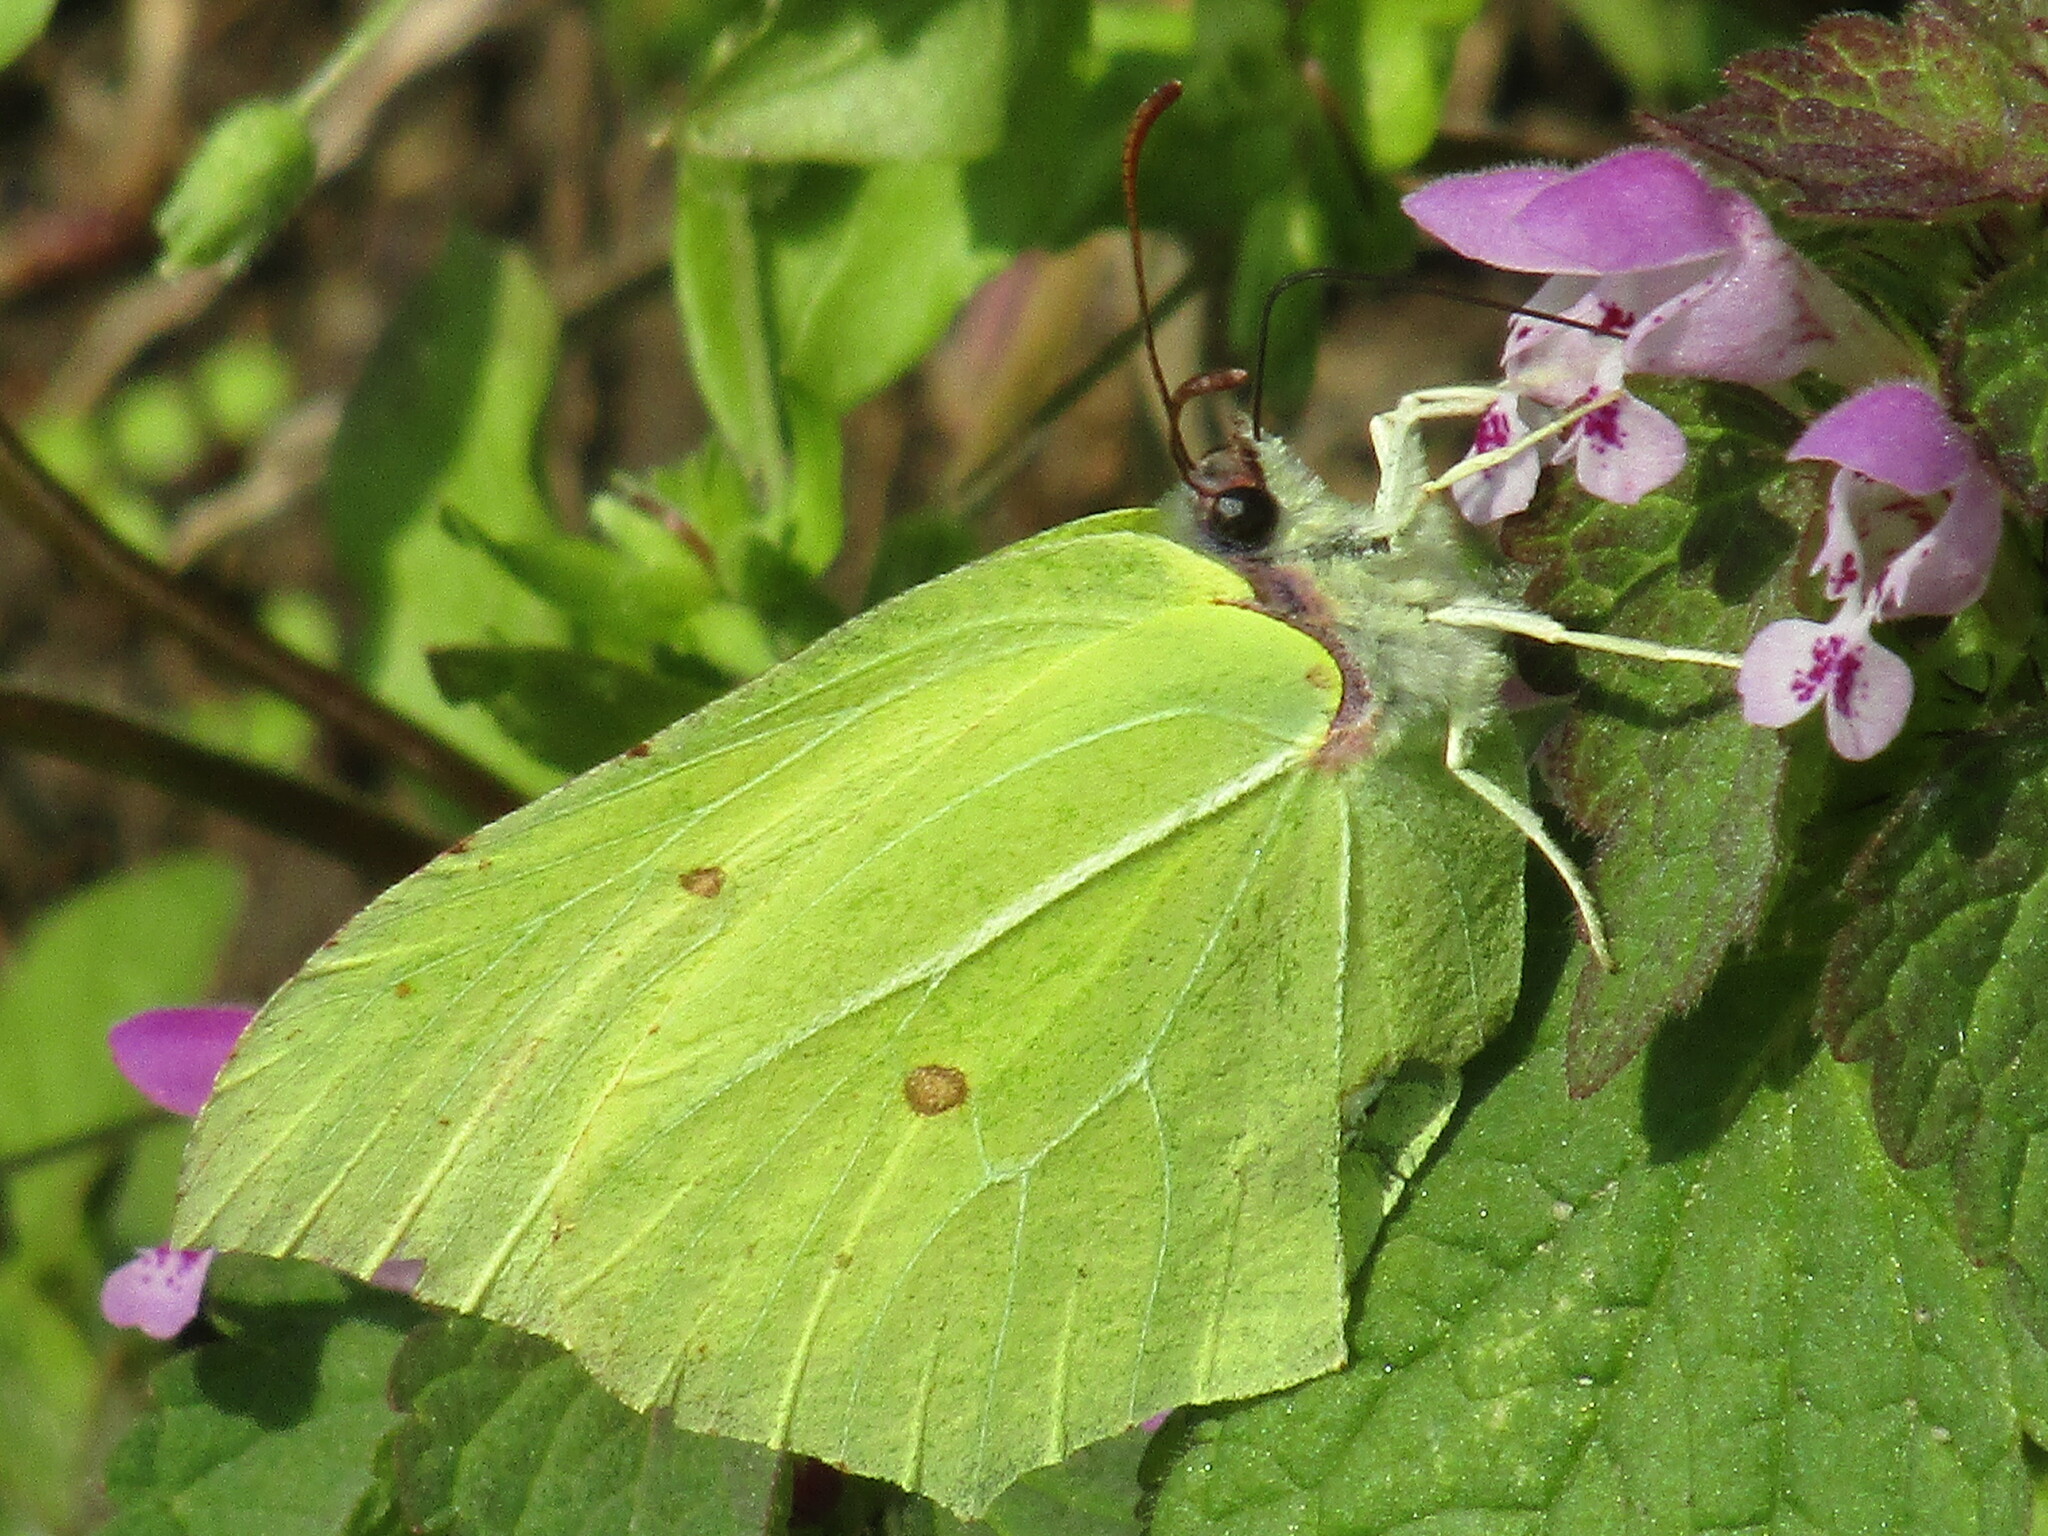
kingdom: Animalia
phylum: Arthropoda
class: Insecta
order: Lepidoptera
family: Pieridae
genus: Gonepteryx
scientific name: Gonepteryx rhamni
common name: Brimstone
